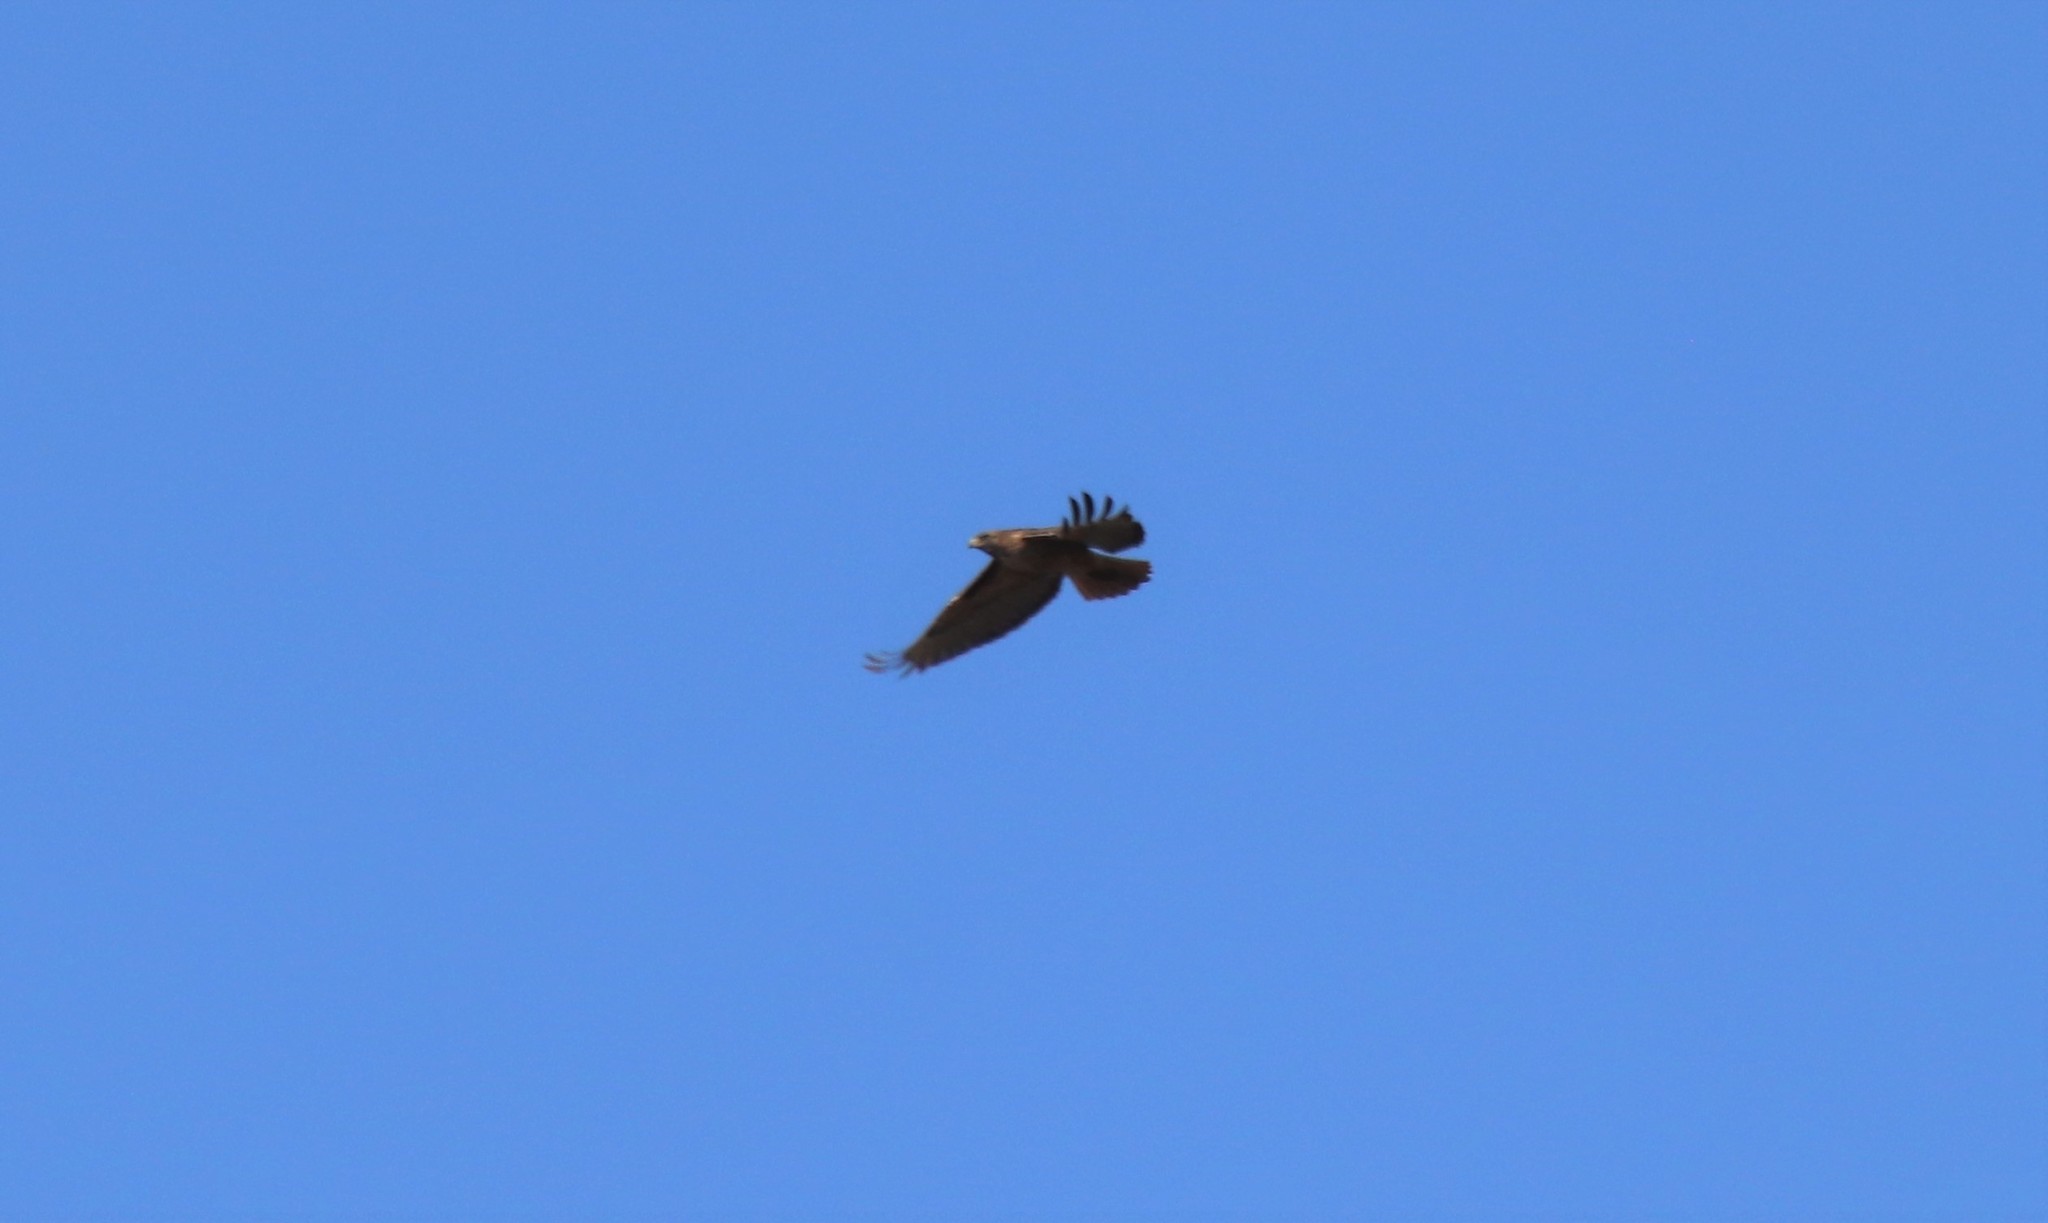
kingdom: Animalia
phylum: Chordata
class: Aves
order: Accipitriformes
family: Accipitridae
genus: Buteo
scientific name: Buteo jamaicensis
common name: Red-tailed hawk
